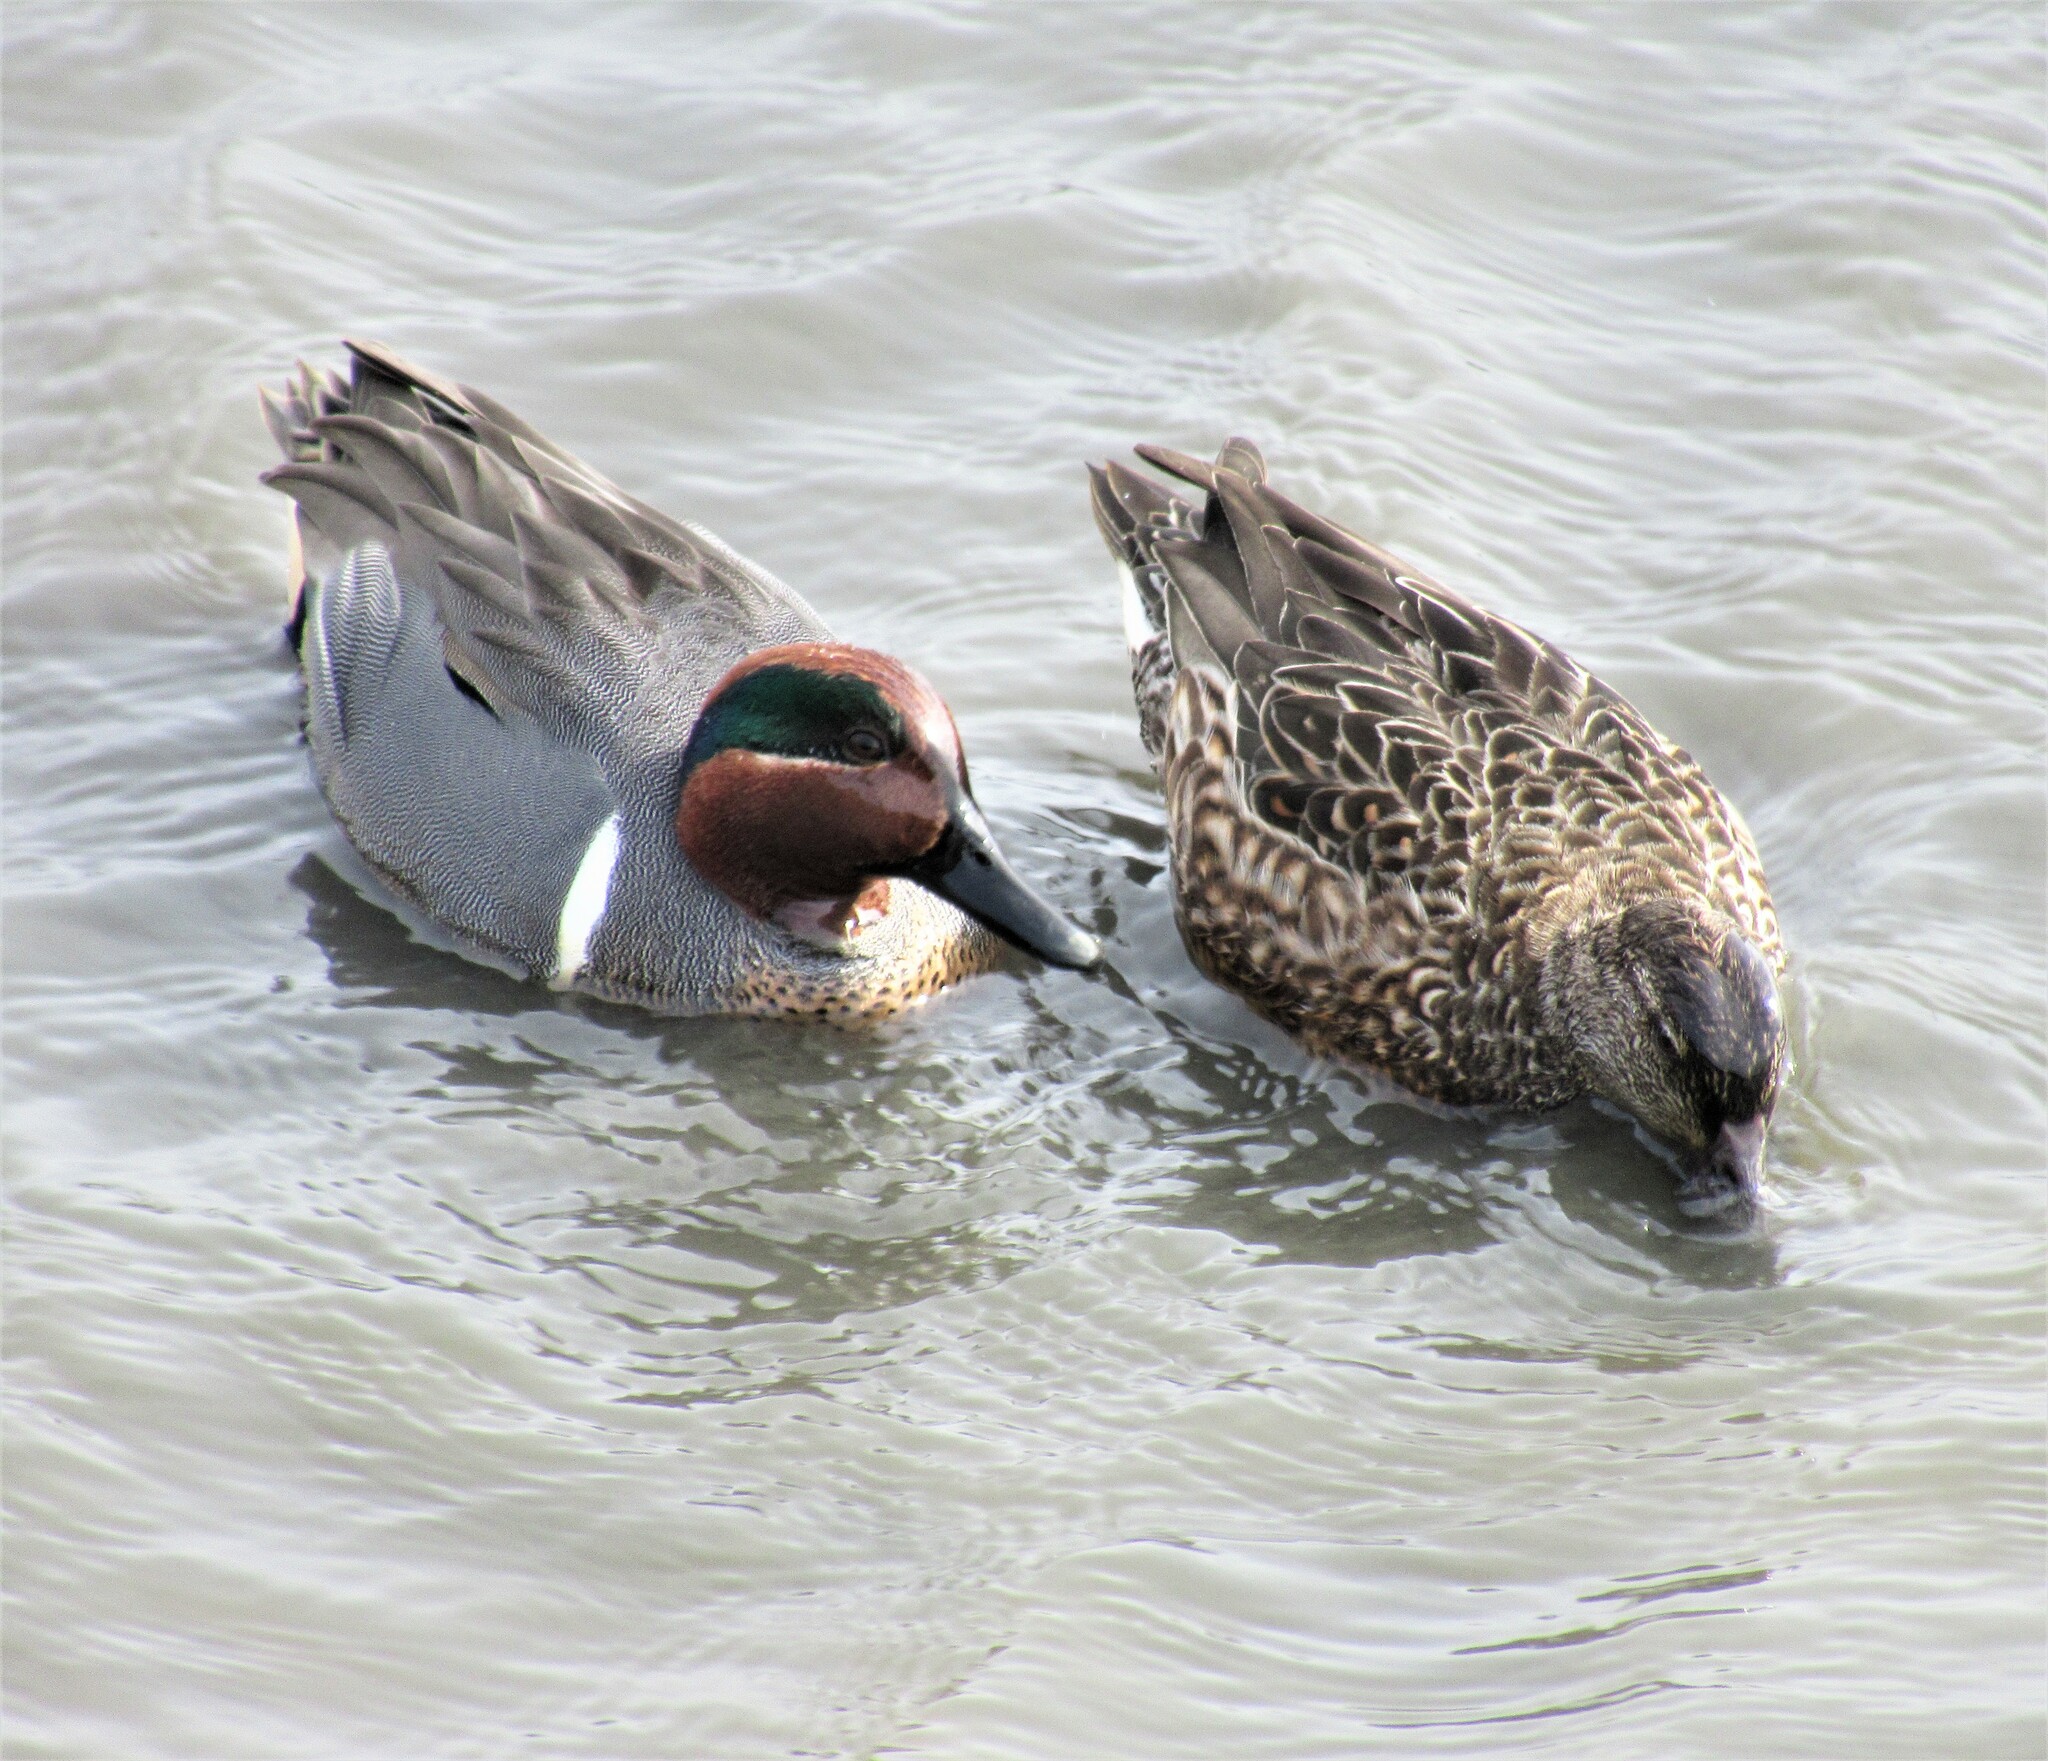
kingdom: Animalia
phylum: Chordata
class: Aves
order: Anseriformes
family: Anatidae
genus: Anas
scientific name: Anas crecca
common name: Eurasian teal
